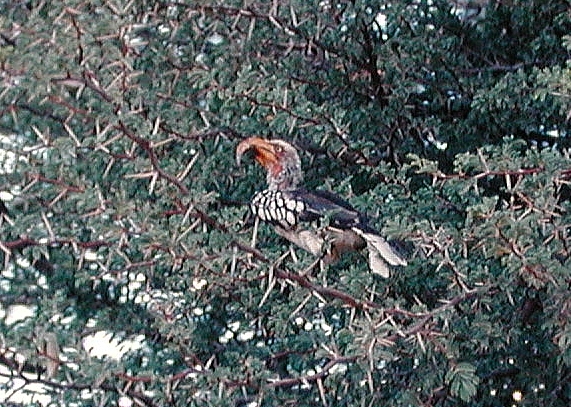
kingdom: Animalia
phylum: Chordata
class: Aves
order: Bucerotiformes
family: Bucerotidae
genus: Tockus
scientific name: Tockus leucomelas
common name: Southern yellow-billed hornbill
